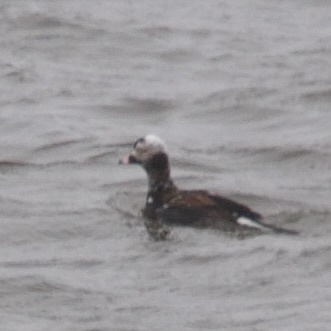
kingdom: Animalia
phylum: Chordata
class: Aves
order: Anseriformes
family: Anatidae
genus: Clangula
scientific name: Clangula hyemalis
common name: Long-tailed duck
